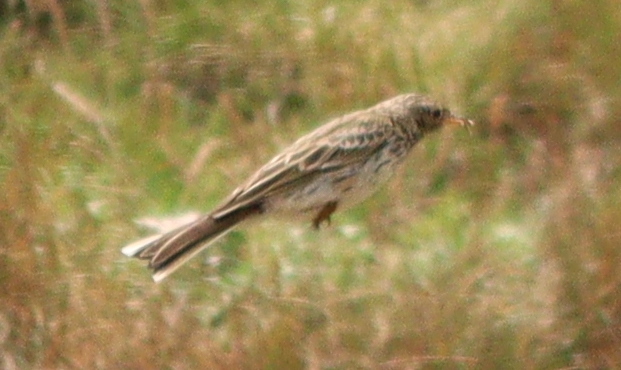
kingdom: Animalia
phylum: Chordata
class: Aves
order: Passeriformes
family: Motacillidae
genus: Anthus
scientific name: Anthus pratensis
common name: Meadow pipit
